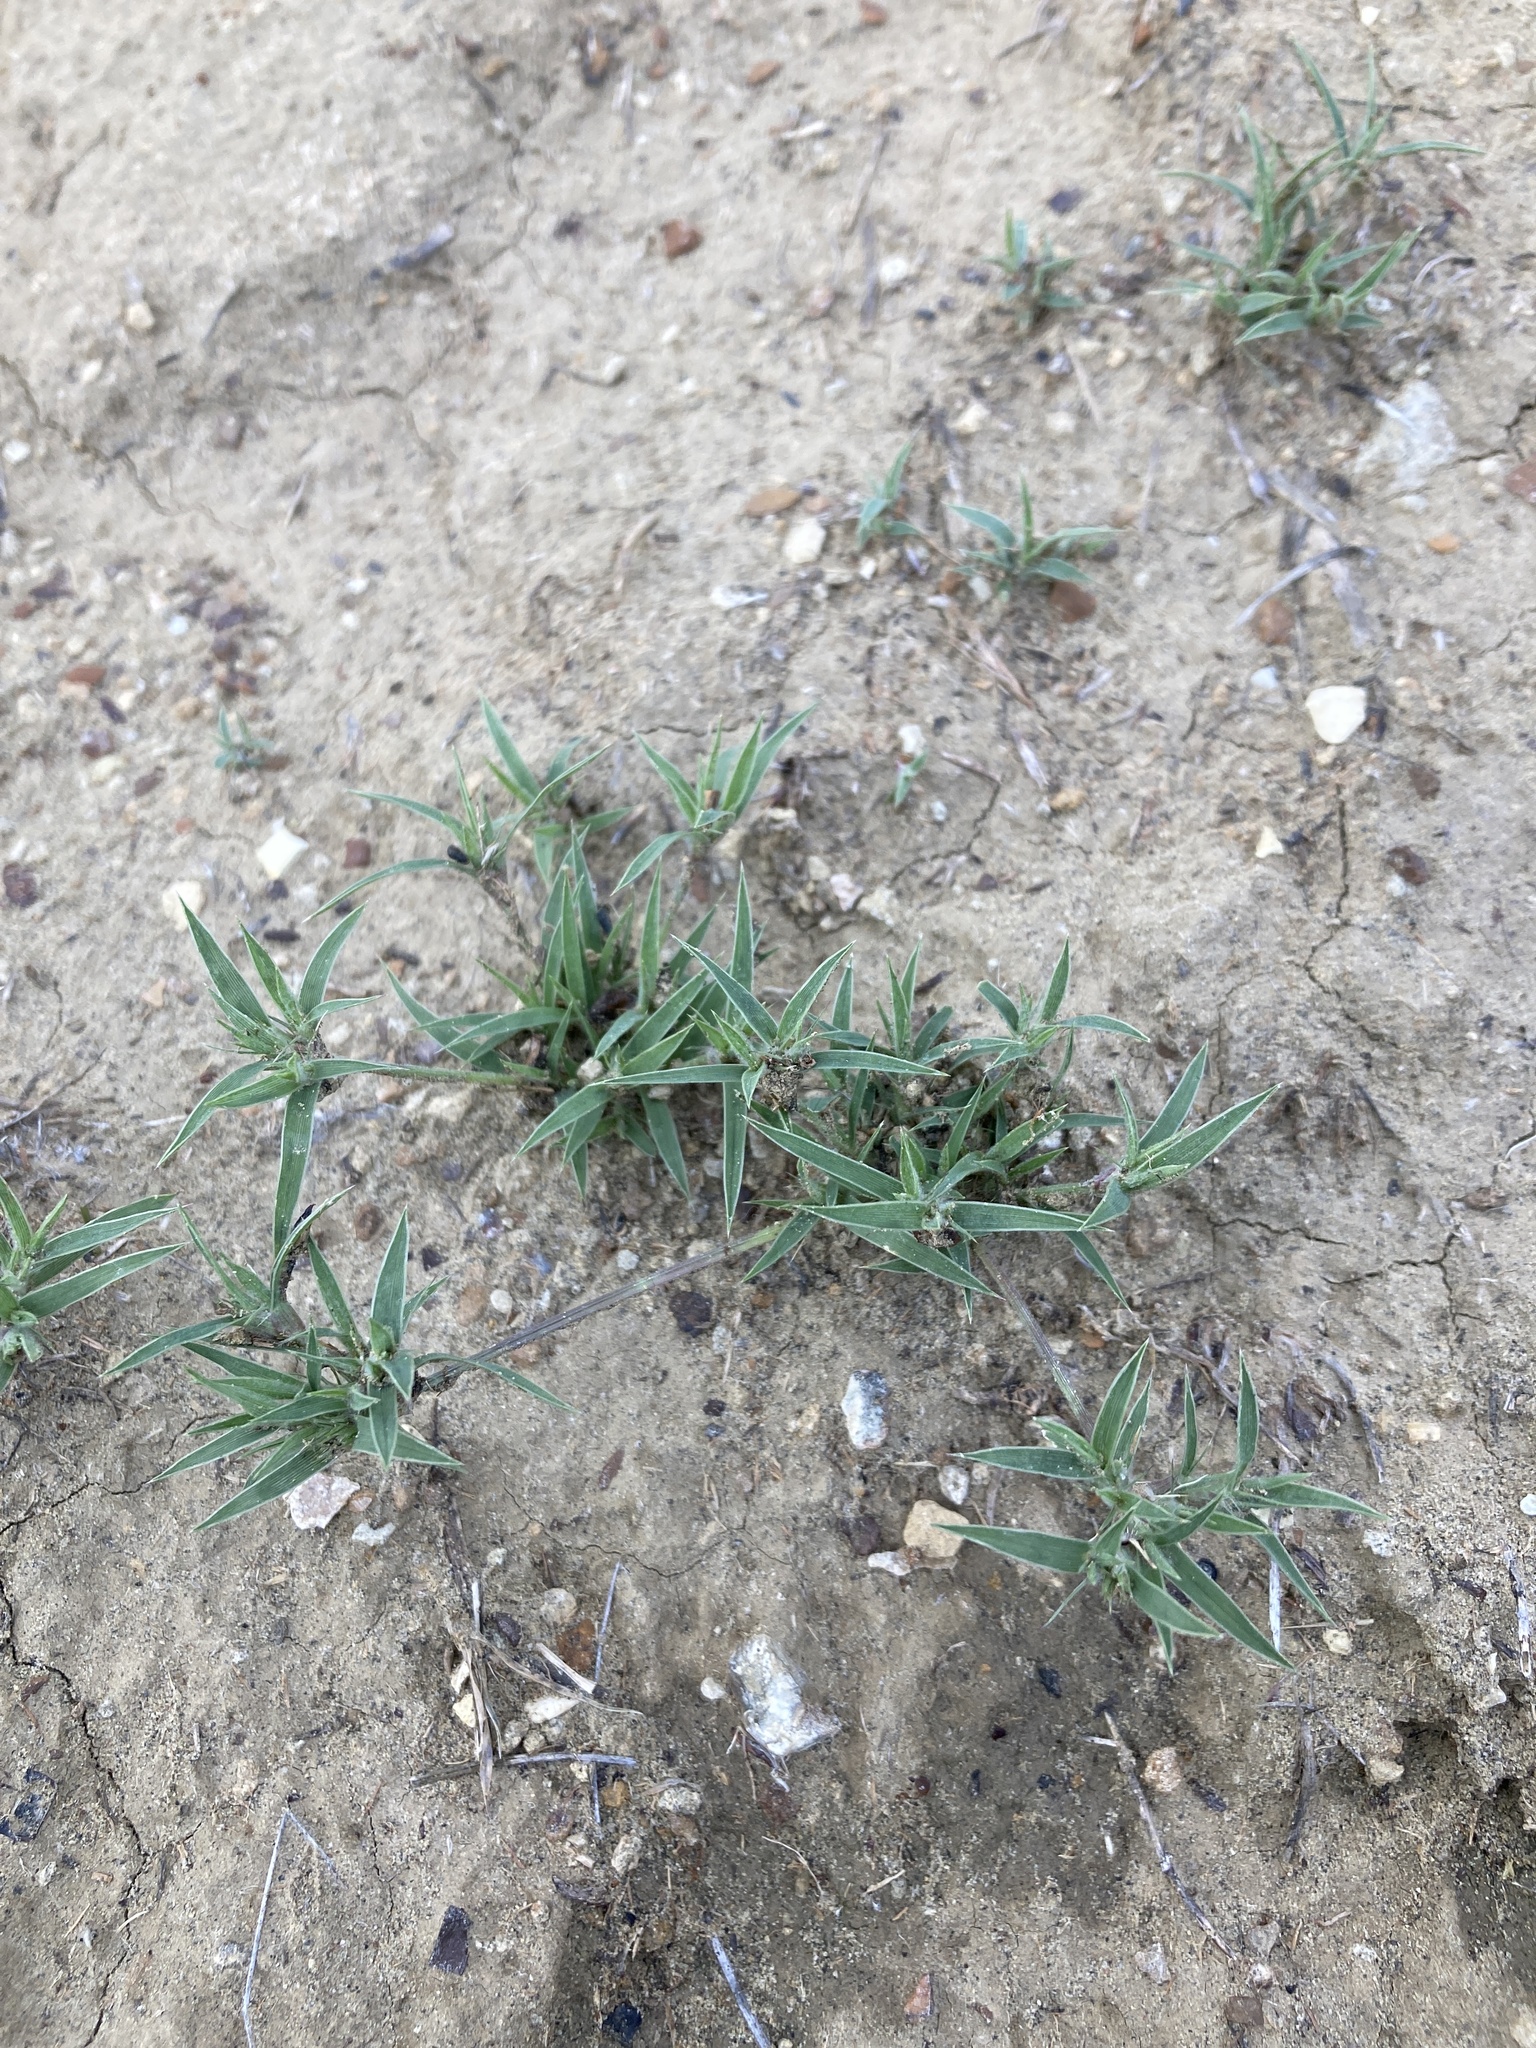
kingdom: Plantae
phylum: Tracheophyta
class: Liliopsida
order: Poales
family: Poaceae
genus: Munroa
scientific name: Munroa squarrosa
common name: False buffalo grass
